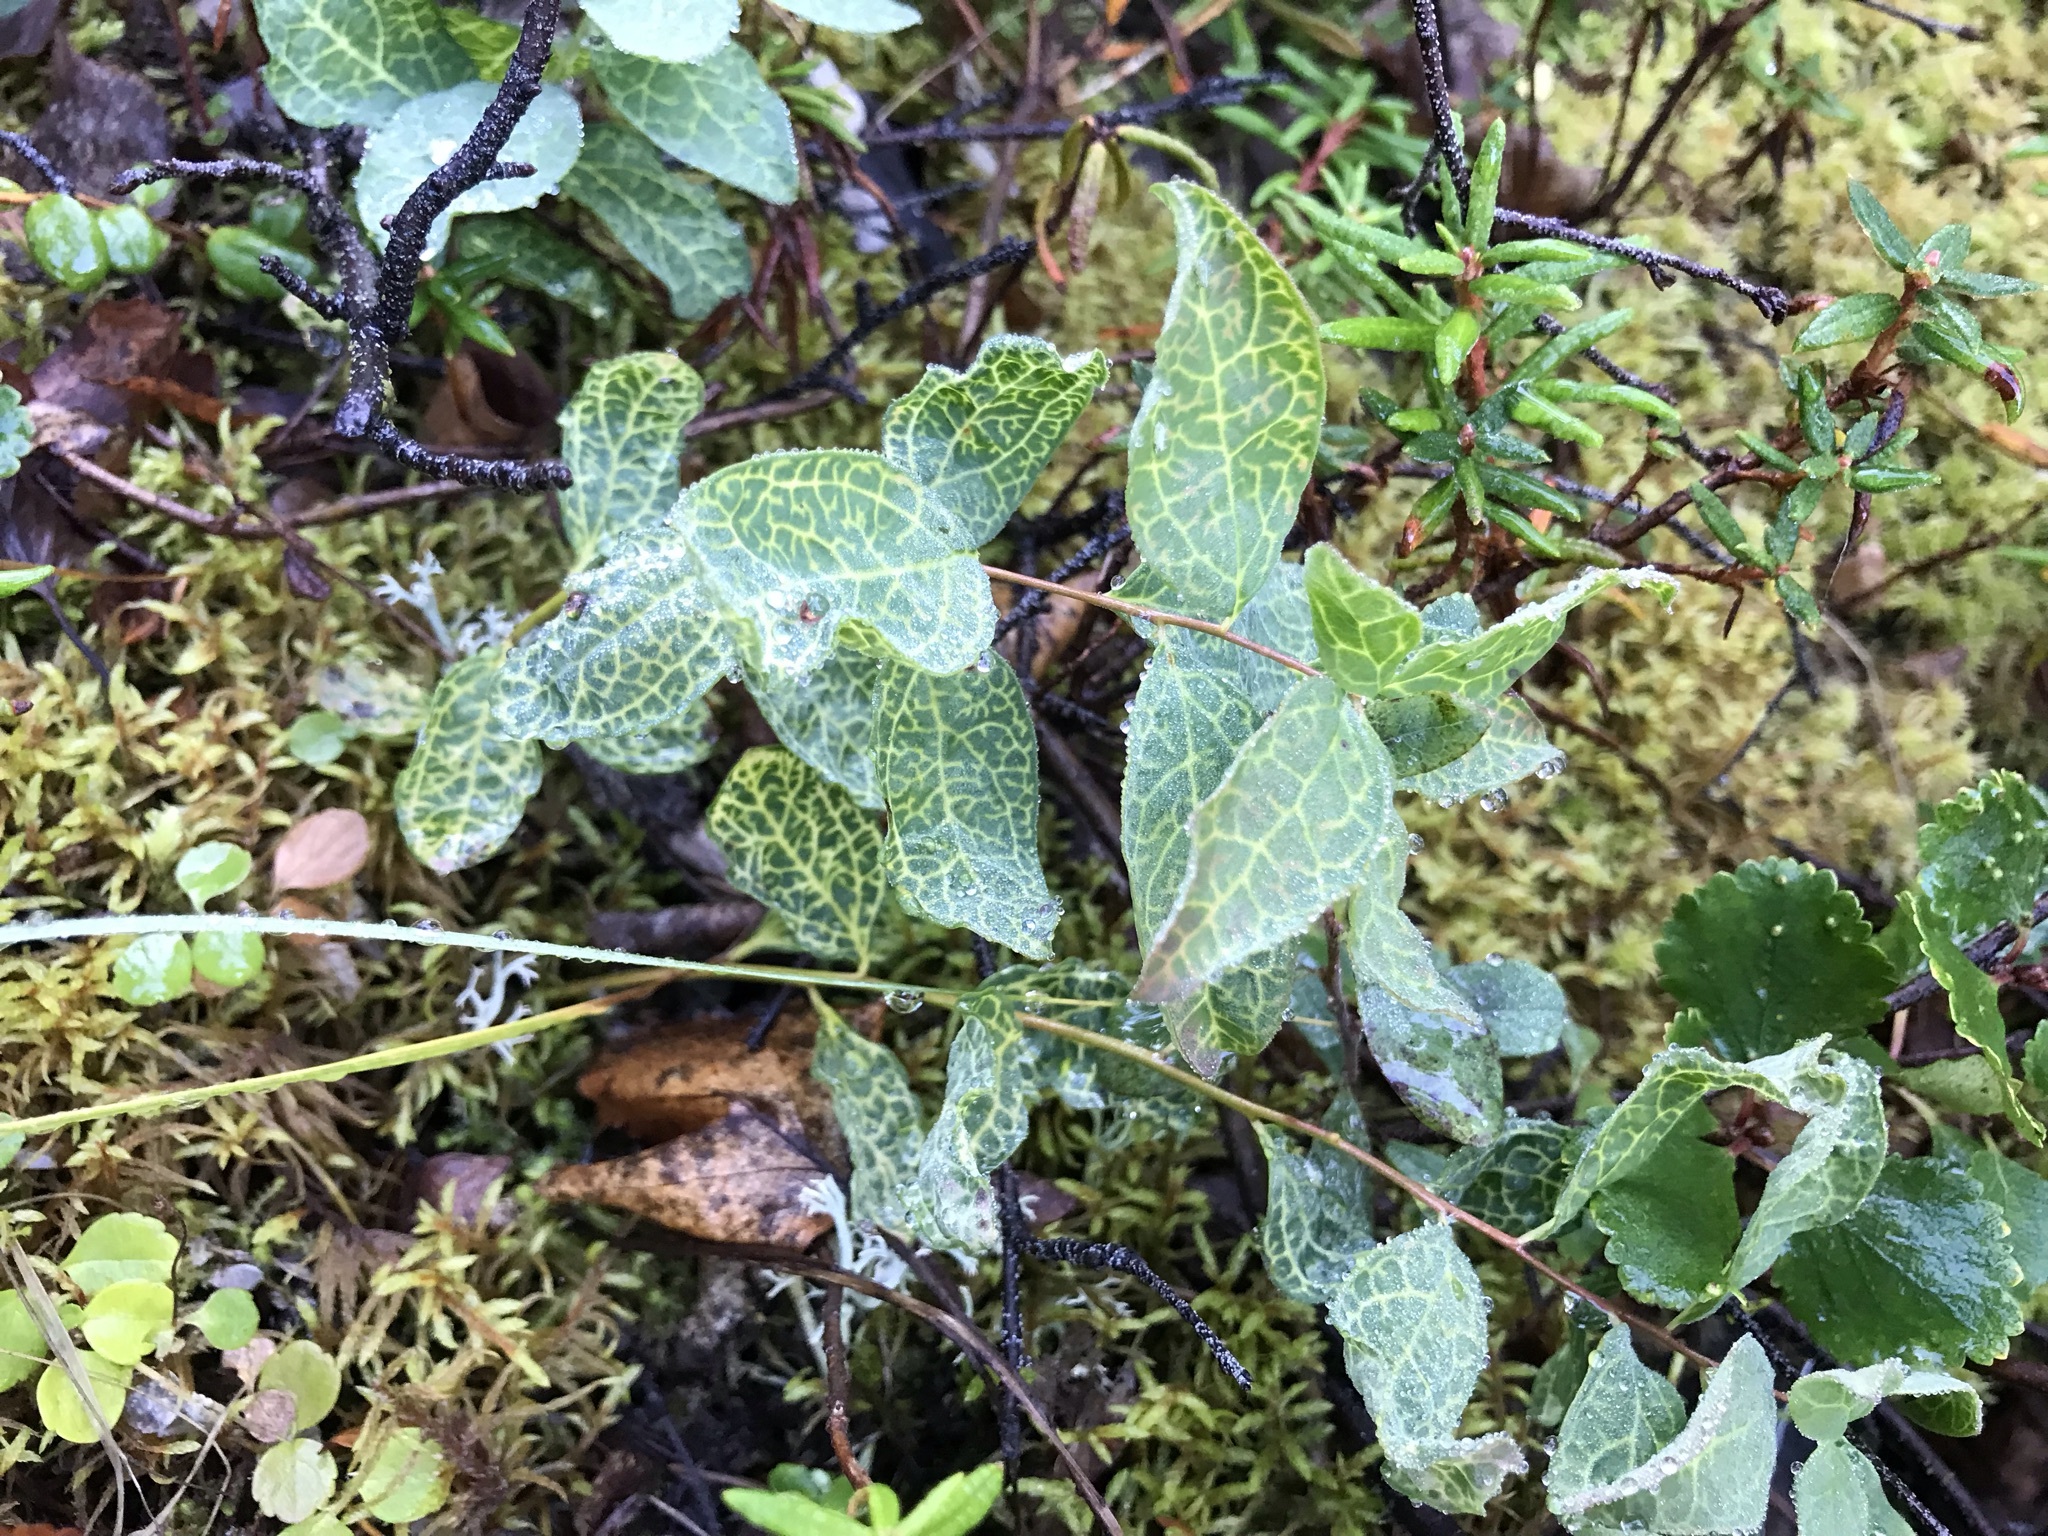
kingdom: Plantae
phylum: Tracheophyta
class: Magnoliopsida
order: Santalales
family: Comandraceae
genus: Geocaulon
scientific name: Geocaulon lividum
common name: Earthberry
